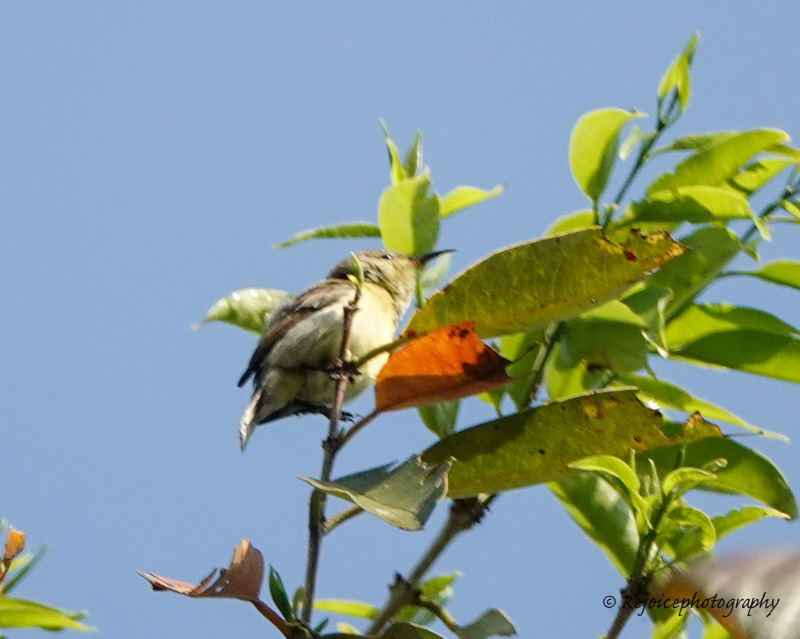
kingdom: Animalia
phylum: Chordata
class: Aves
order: Passeriformes
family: Nectariniidae
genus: Leptocoma
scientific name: Leptocoma brasiliana
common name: Van hasselt's sunbird
